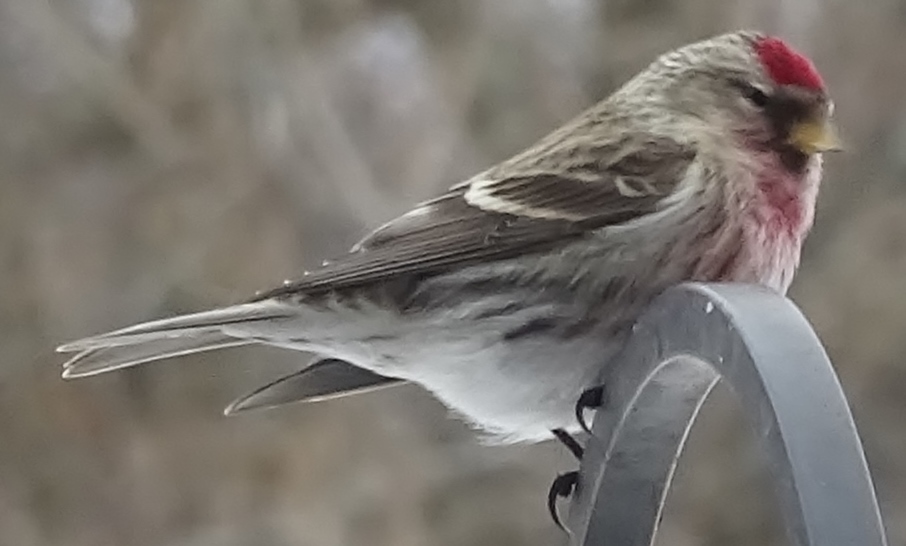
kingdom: Animalia
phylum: Chordata
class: Aves
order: Passeriformes
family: Fringillidae
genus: Acanthis
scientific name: Acanthis flammea
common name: Common redpoll
